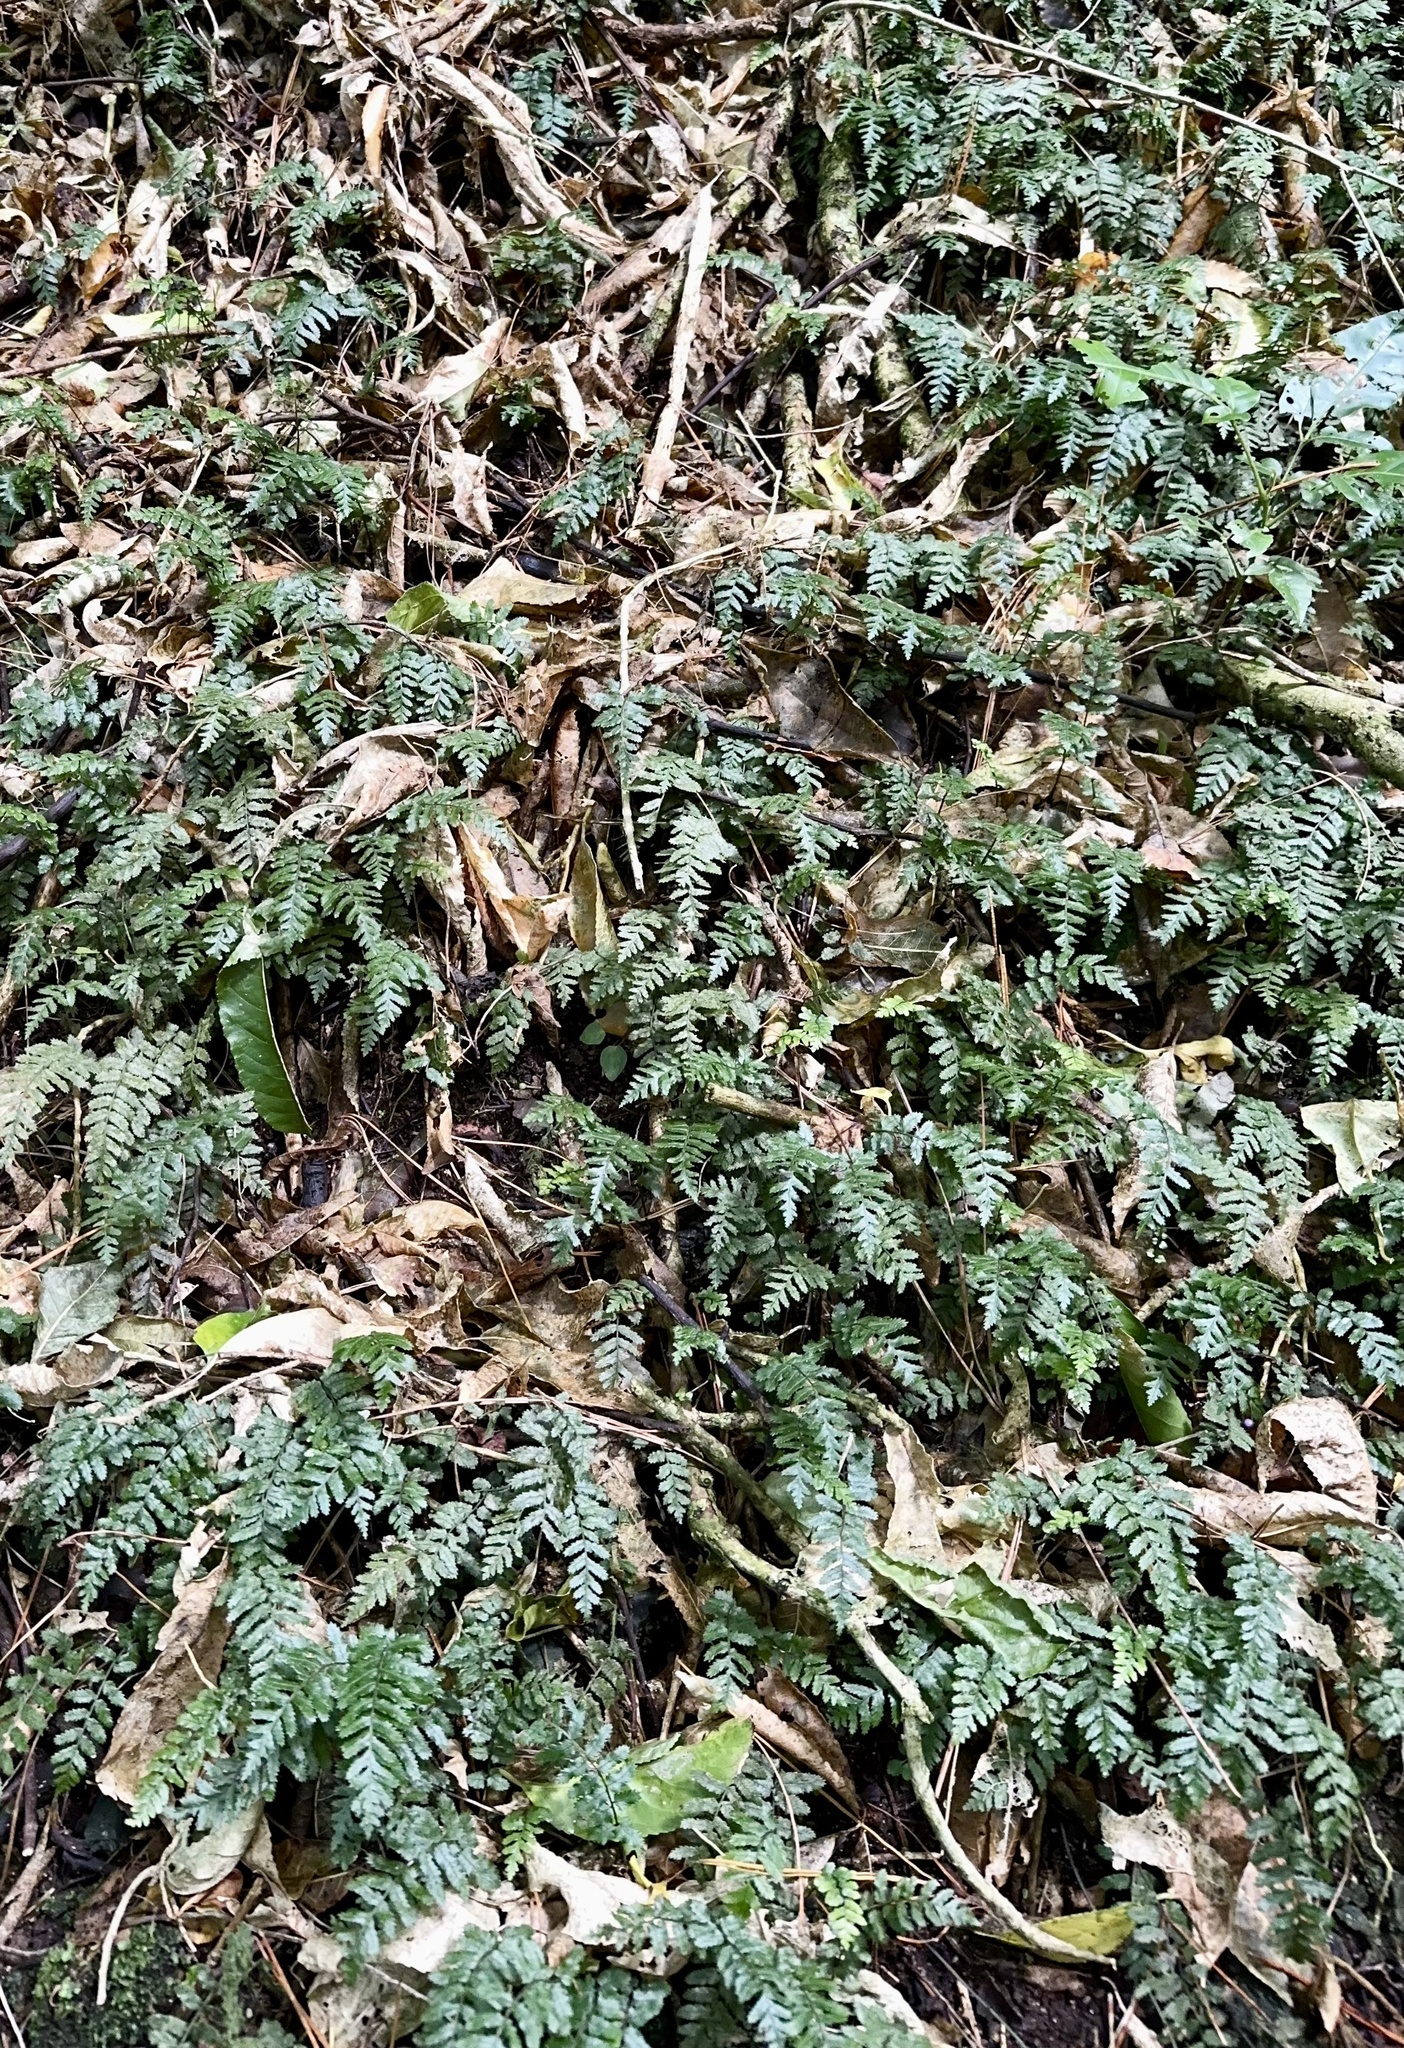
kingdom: Plantae
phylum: Tracheophyta
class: Polypodiopsida
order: Polypodiales
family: Blechnaceae
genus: Icarus
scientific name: Icarus filiformis
